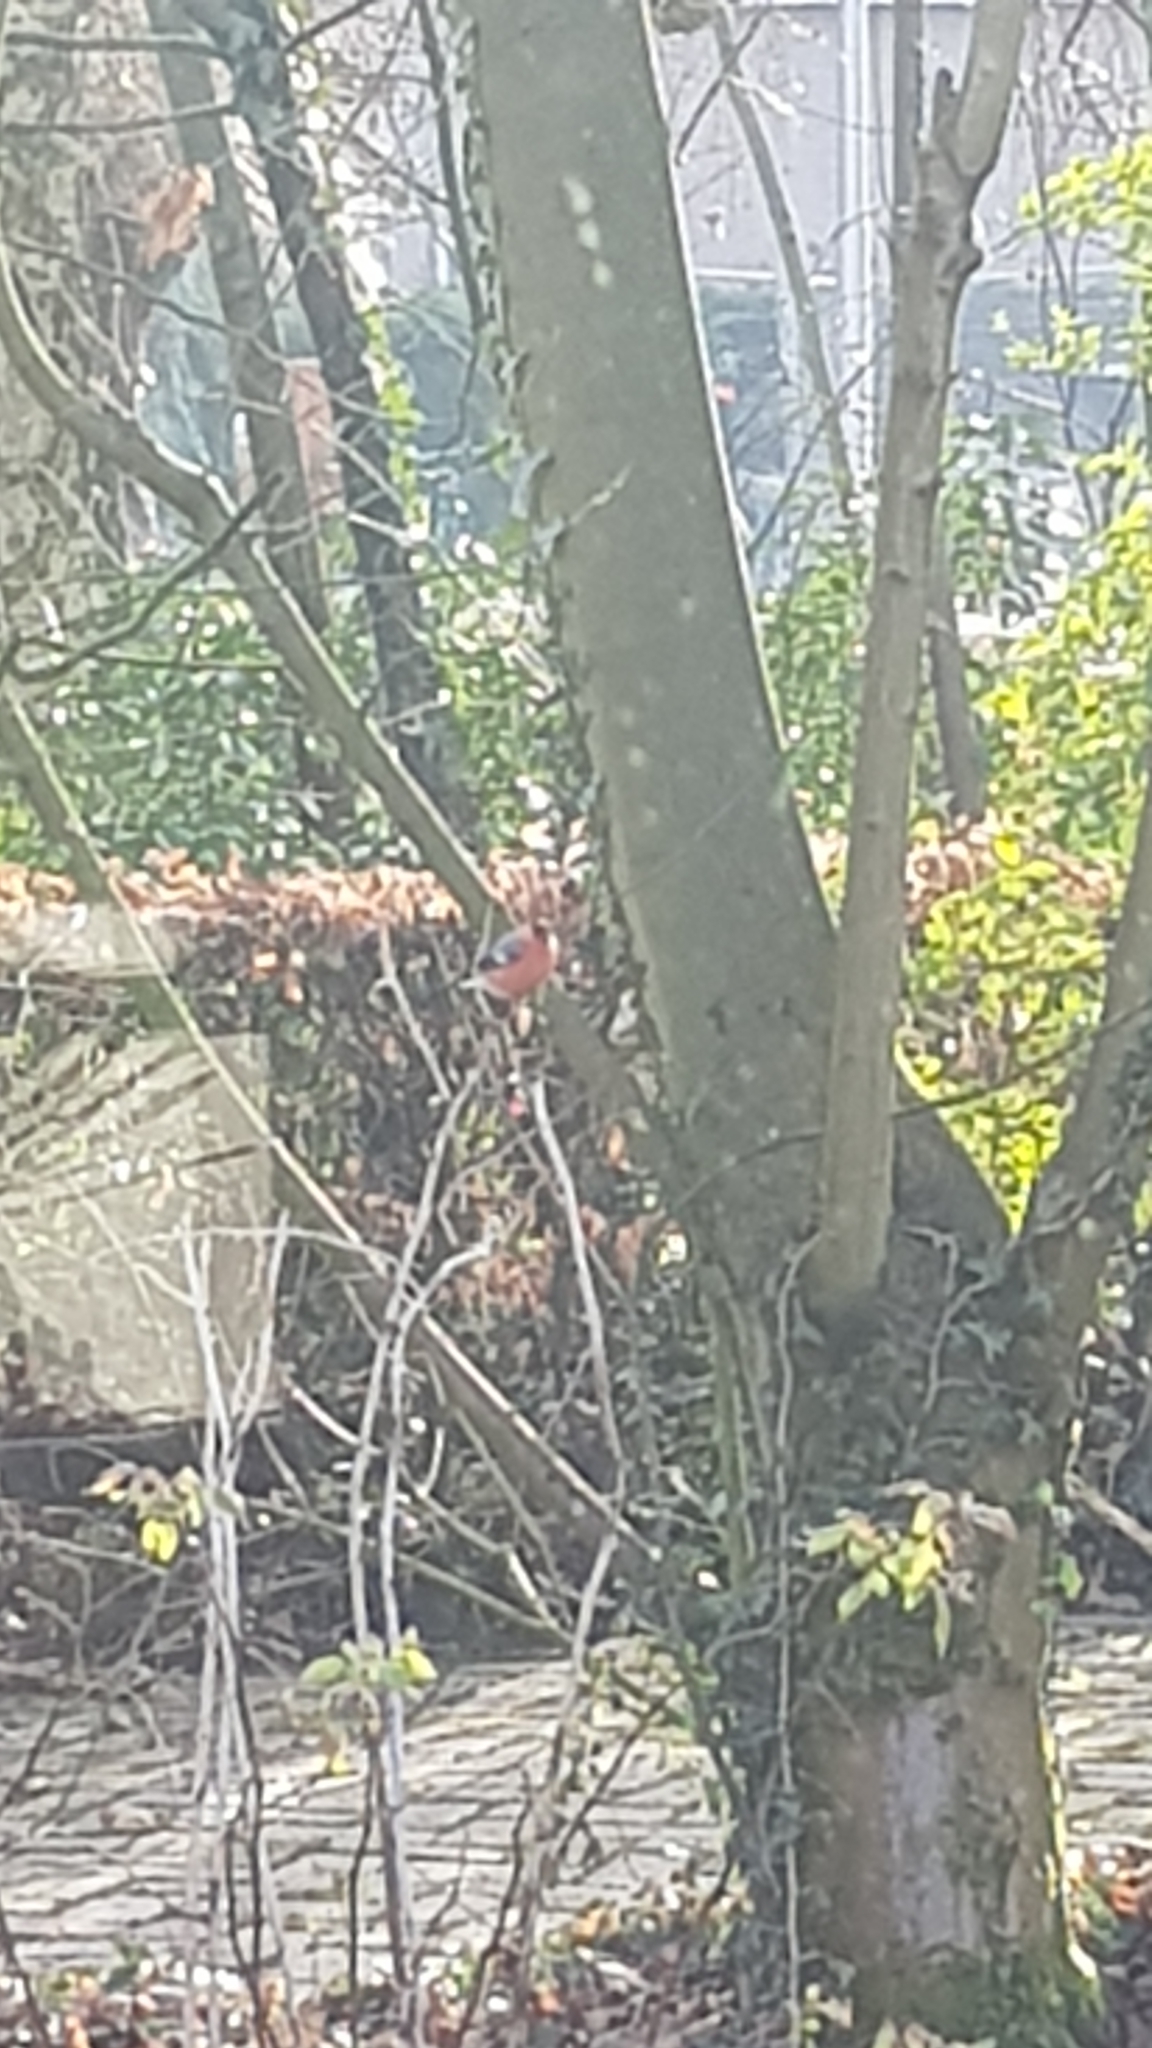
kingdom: Animalia
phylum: Chordata
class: Aves
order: Passeriformes
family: Fringillidae
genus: Pyrrhula
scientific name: Pyrrhula pyrrhula
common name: Eurasian bullfinch
